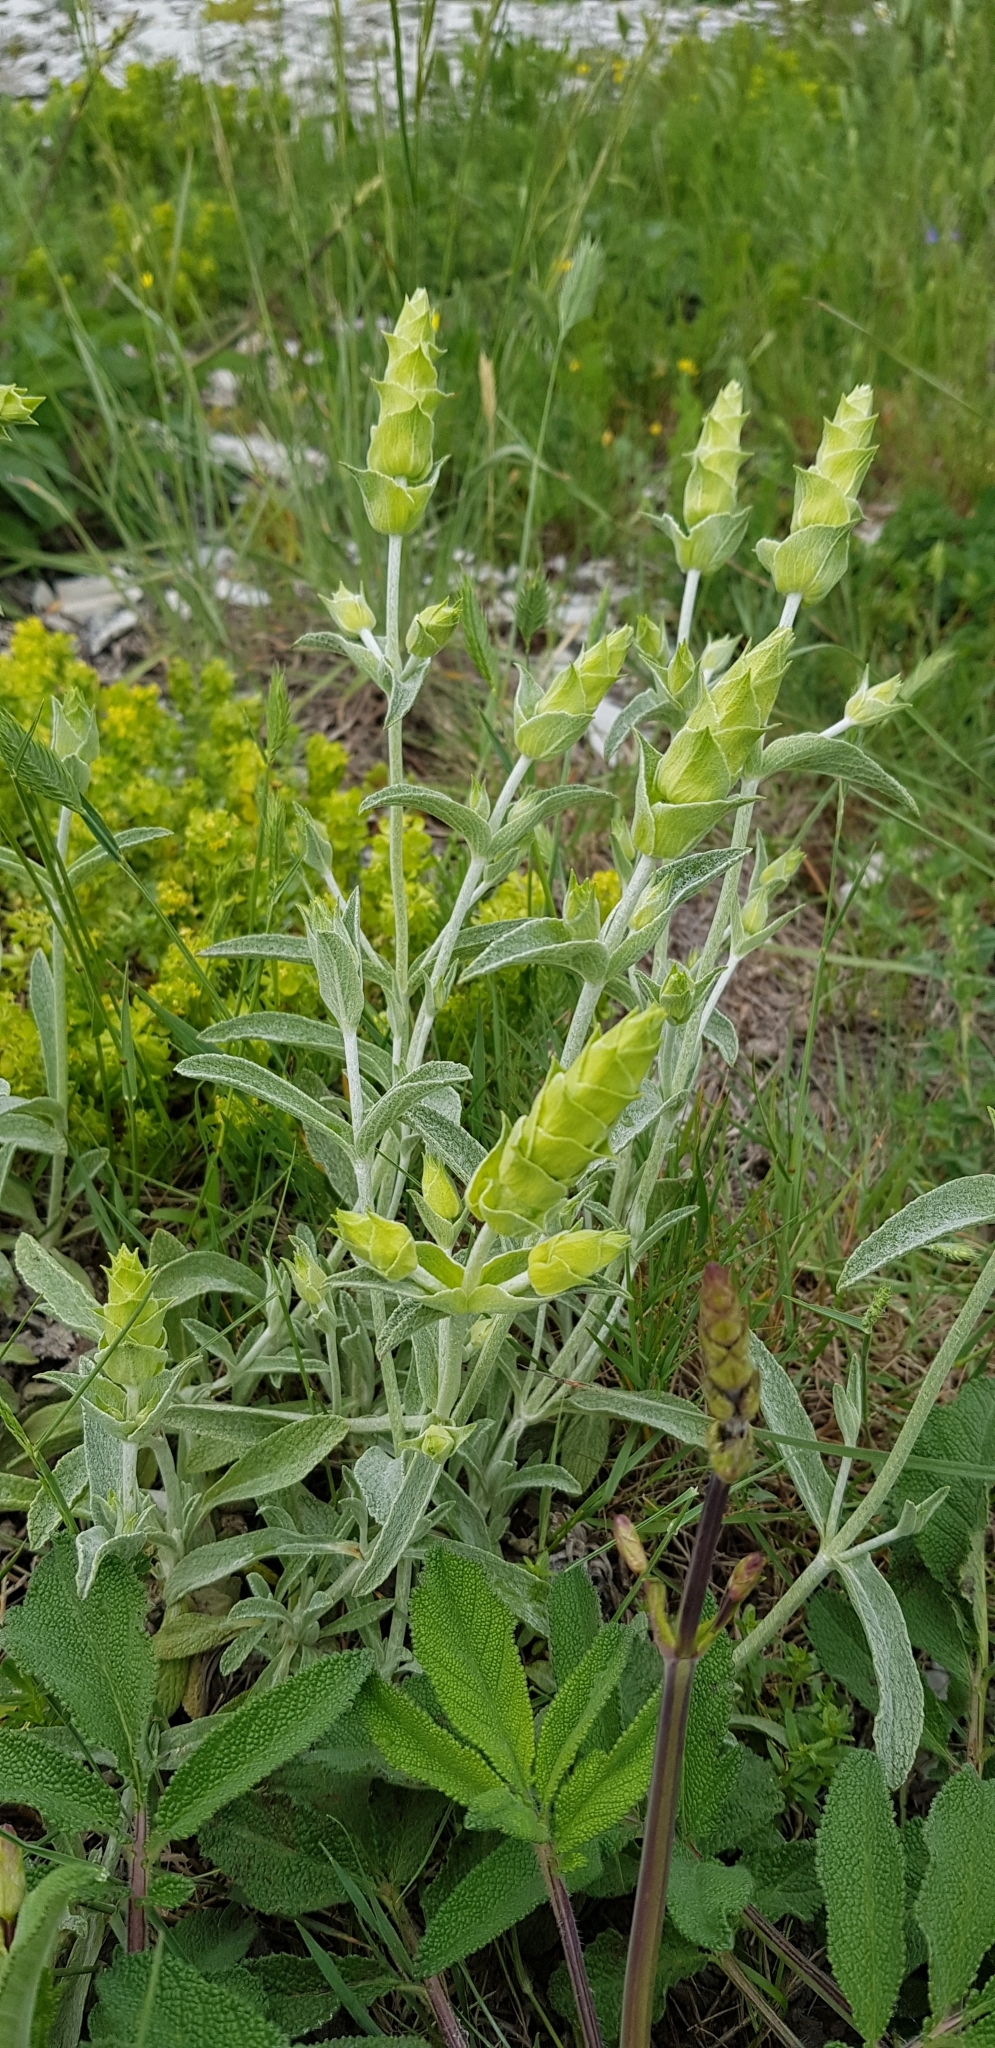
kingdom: Plantae
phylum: Tracheophyta
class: Magnoliopsida
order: Lamiales
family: Lamiaceae
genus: Sideritis
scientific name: Sideritis euxina
